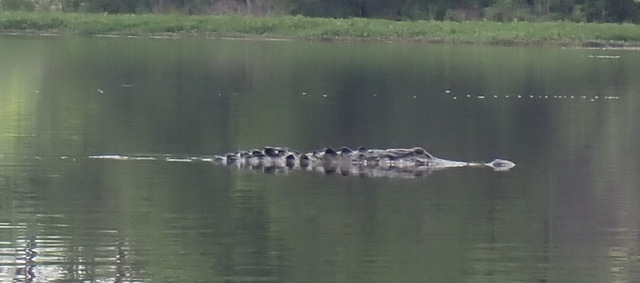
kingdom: Animalia
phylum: Chordata
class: Crocodylia
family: Alligatoridae
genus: Alligator
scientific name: Alligator mississippiensis
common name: American alligator
